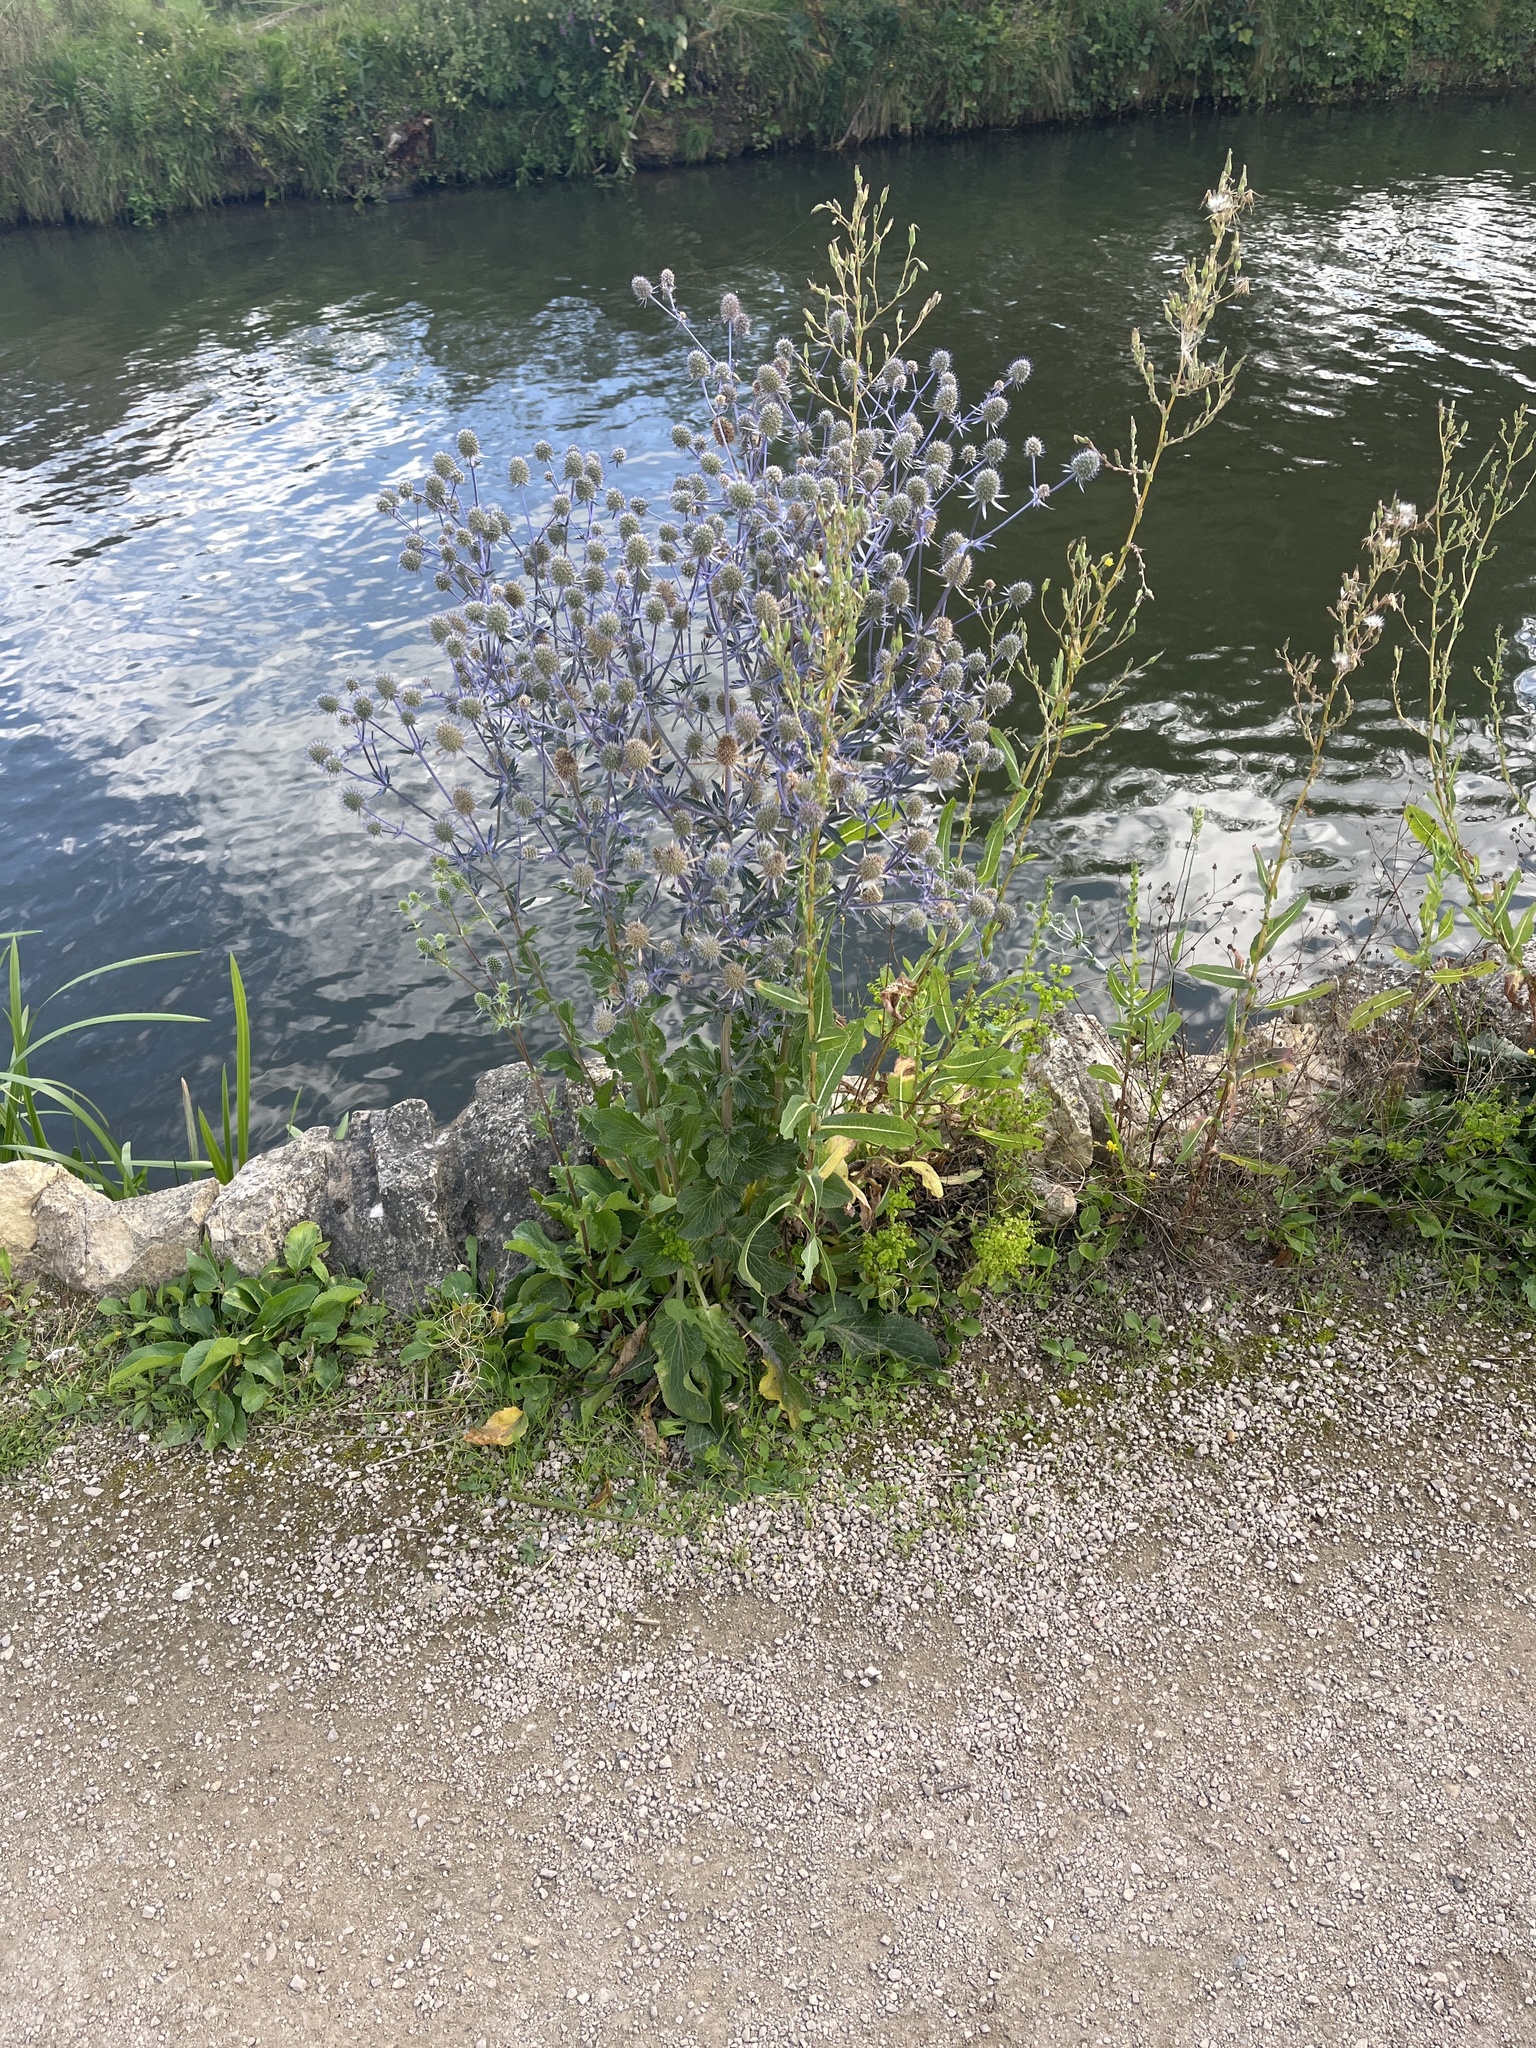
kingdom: Plantae
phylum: Tracheophyta
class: Magnoliopsida
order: Apiales
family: Apiaceae
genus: Eryngium
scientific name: Eryngium planum
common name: Blue eryngo
